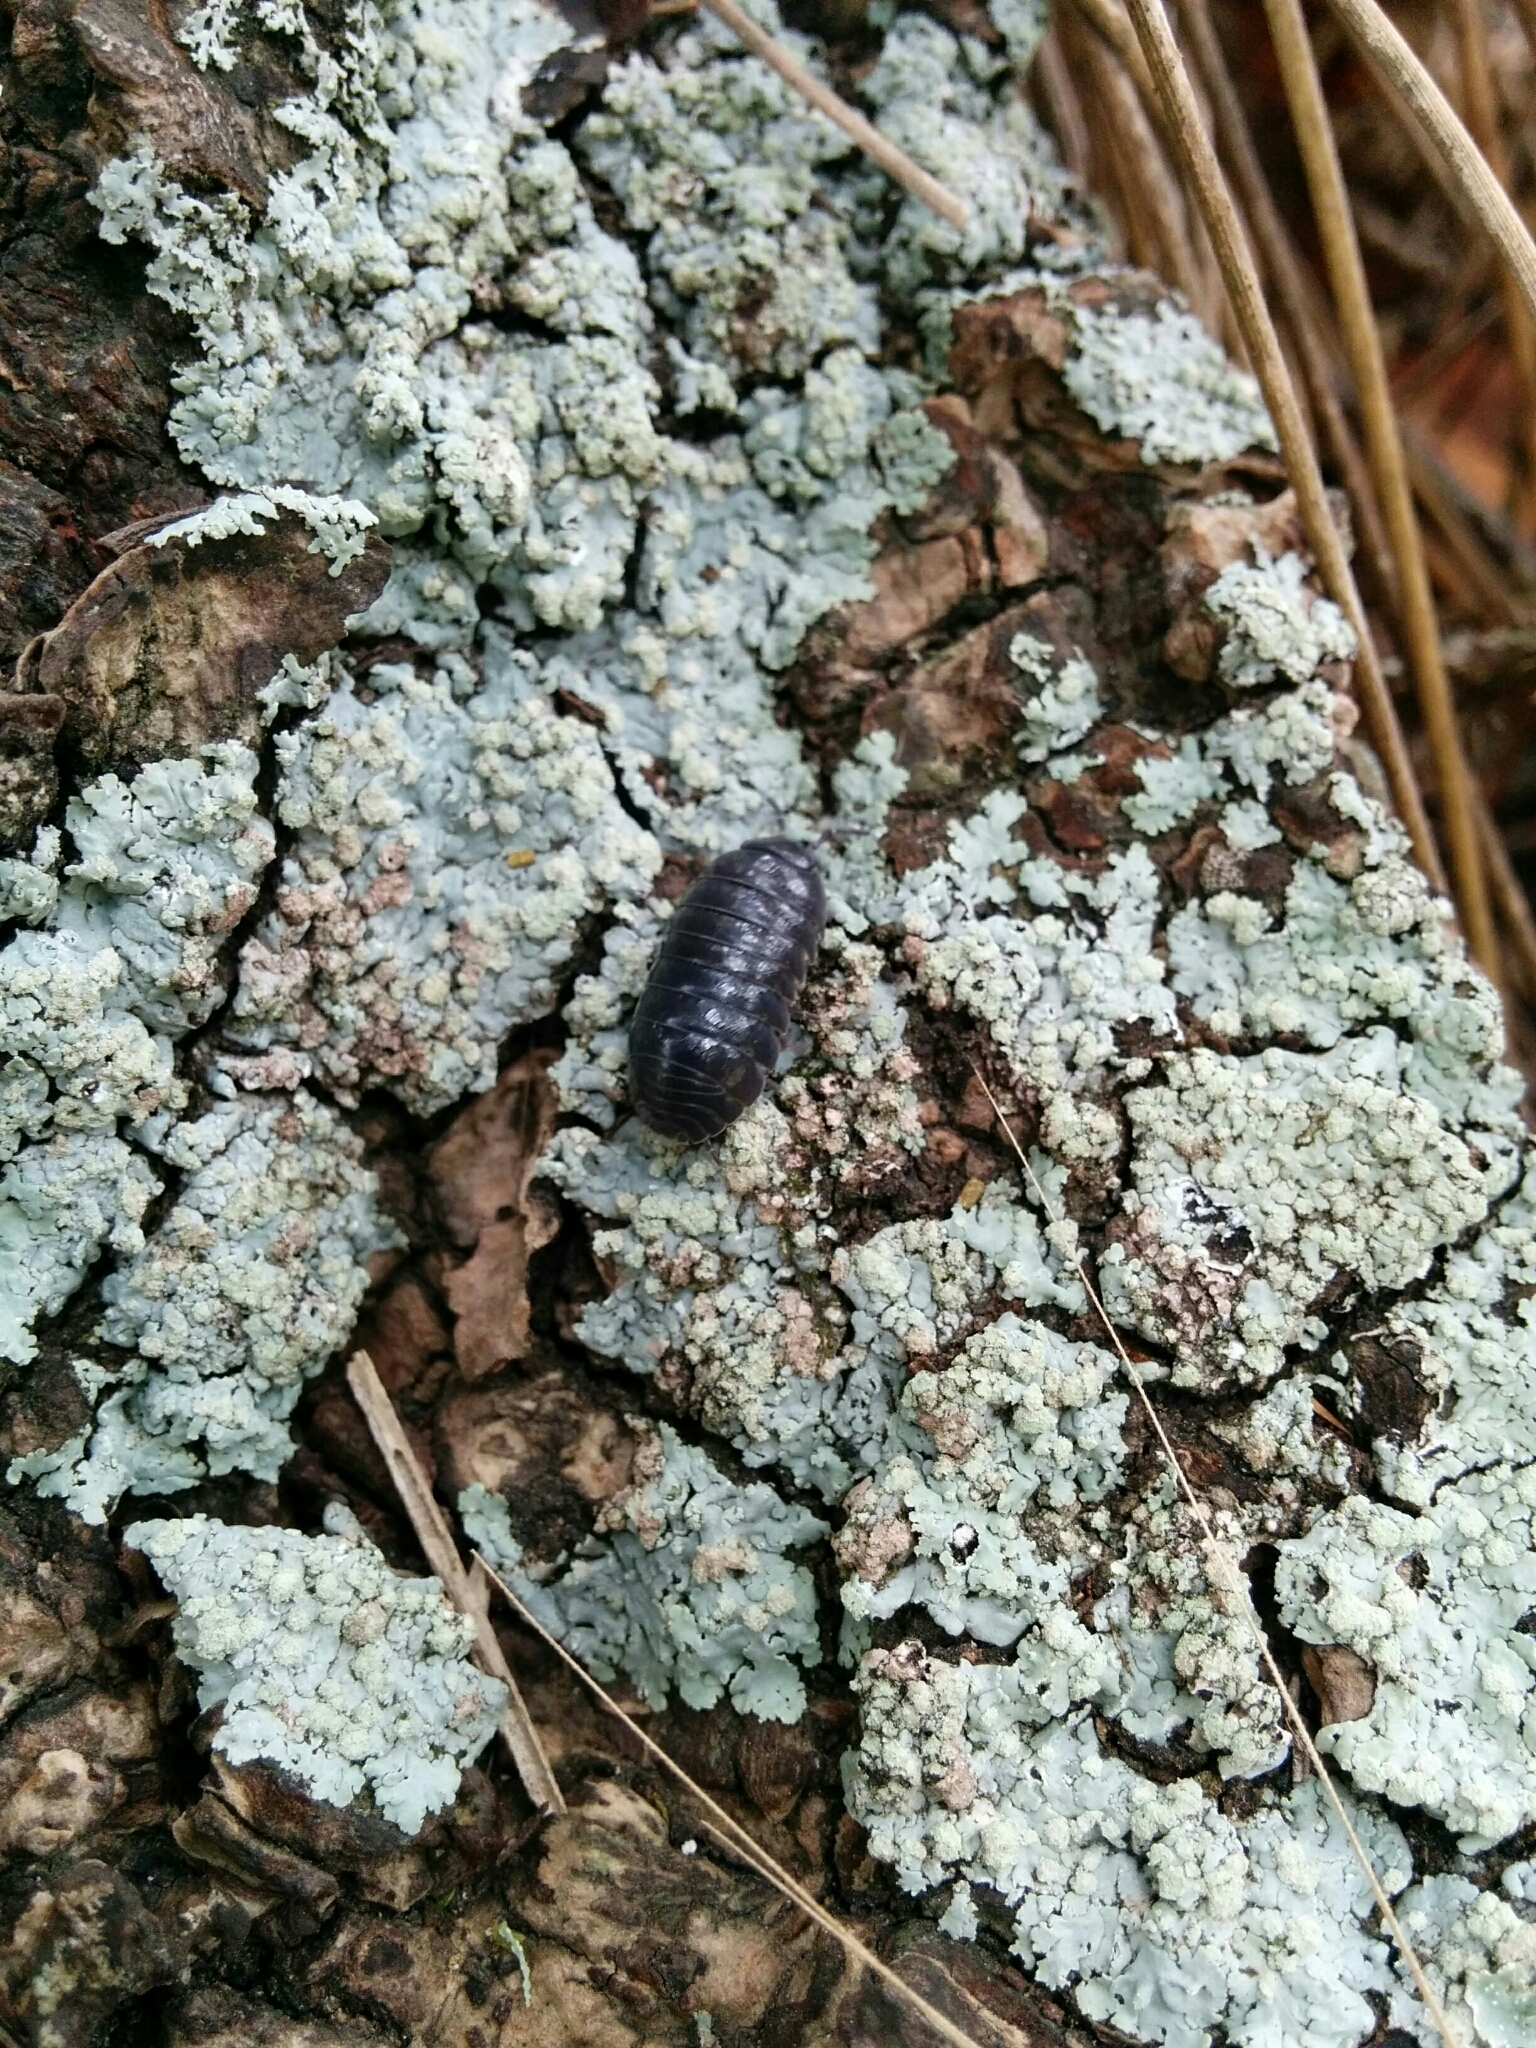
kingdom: Animalia
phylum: Arthropoda
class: Malacostraca
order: Isopoda
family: Armadillidiidae
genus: Armadillidium
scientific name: Armadillidium vulgare
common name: Common pill woodlouse
